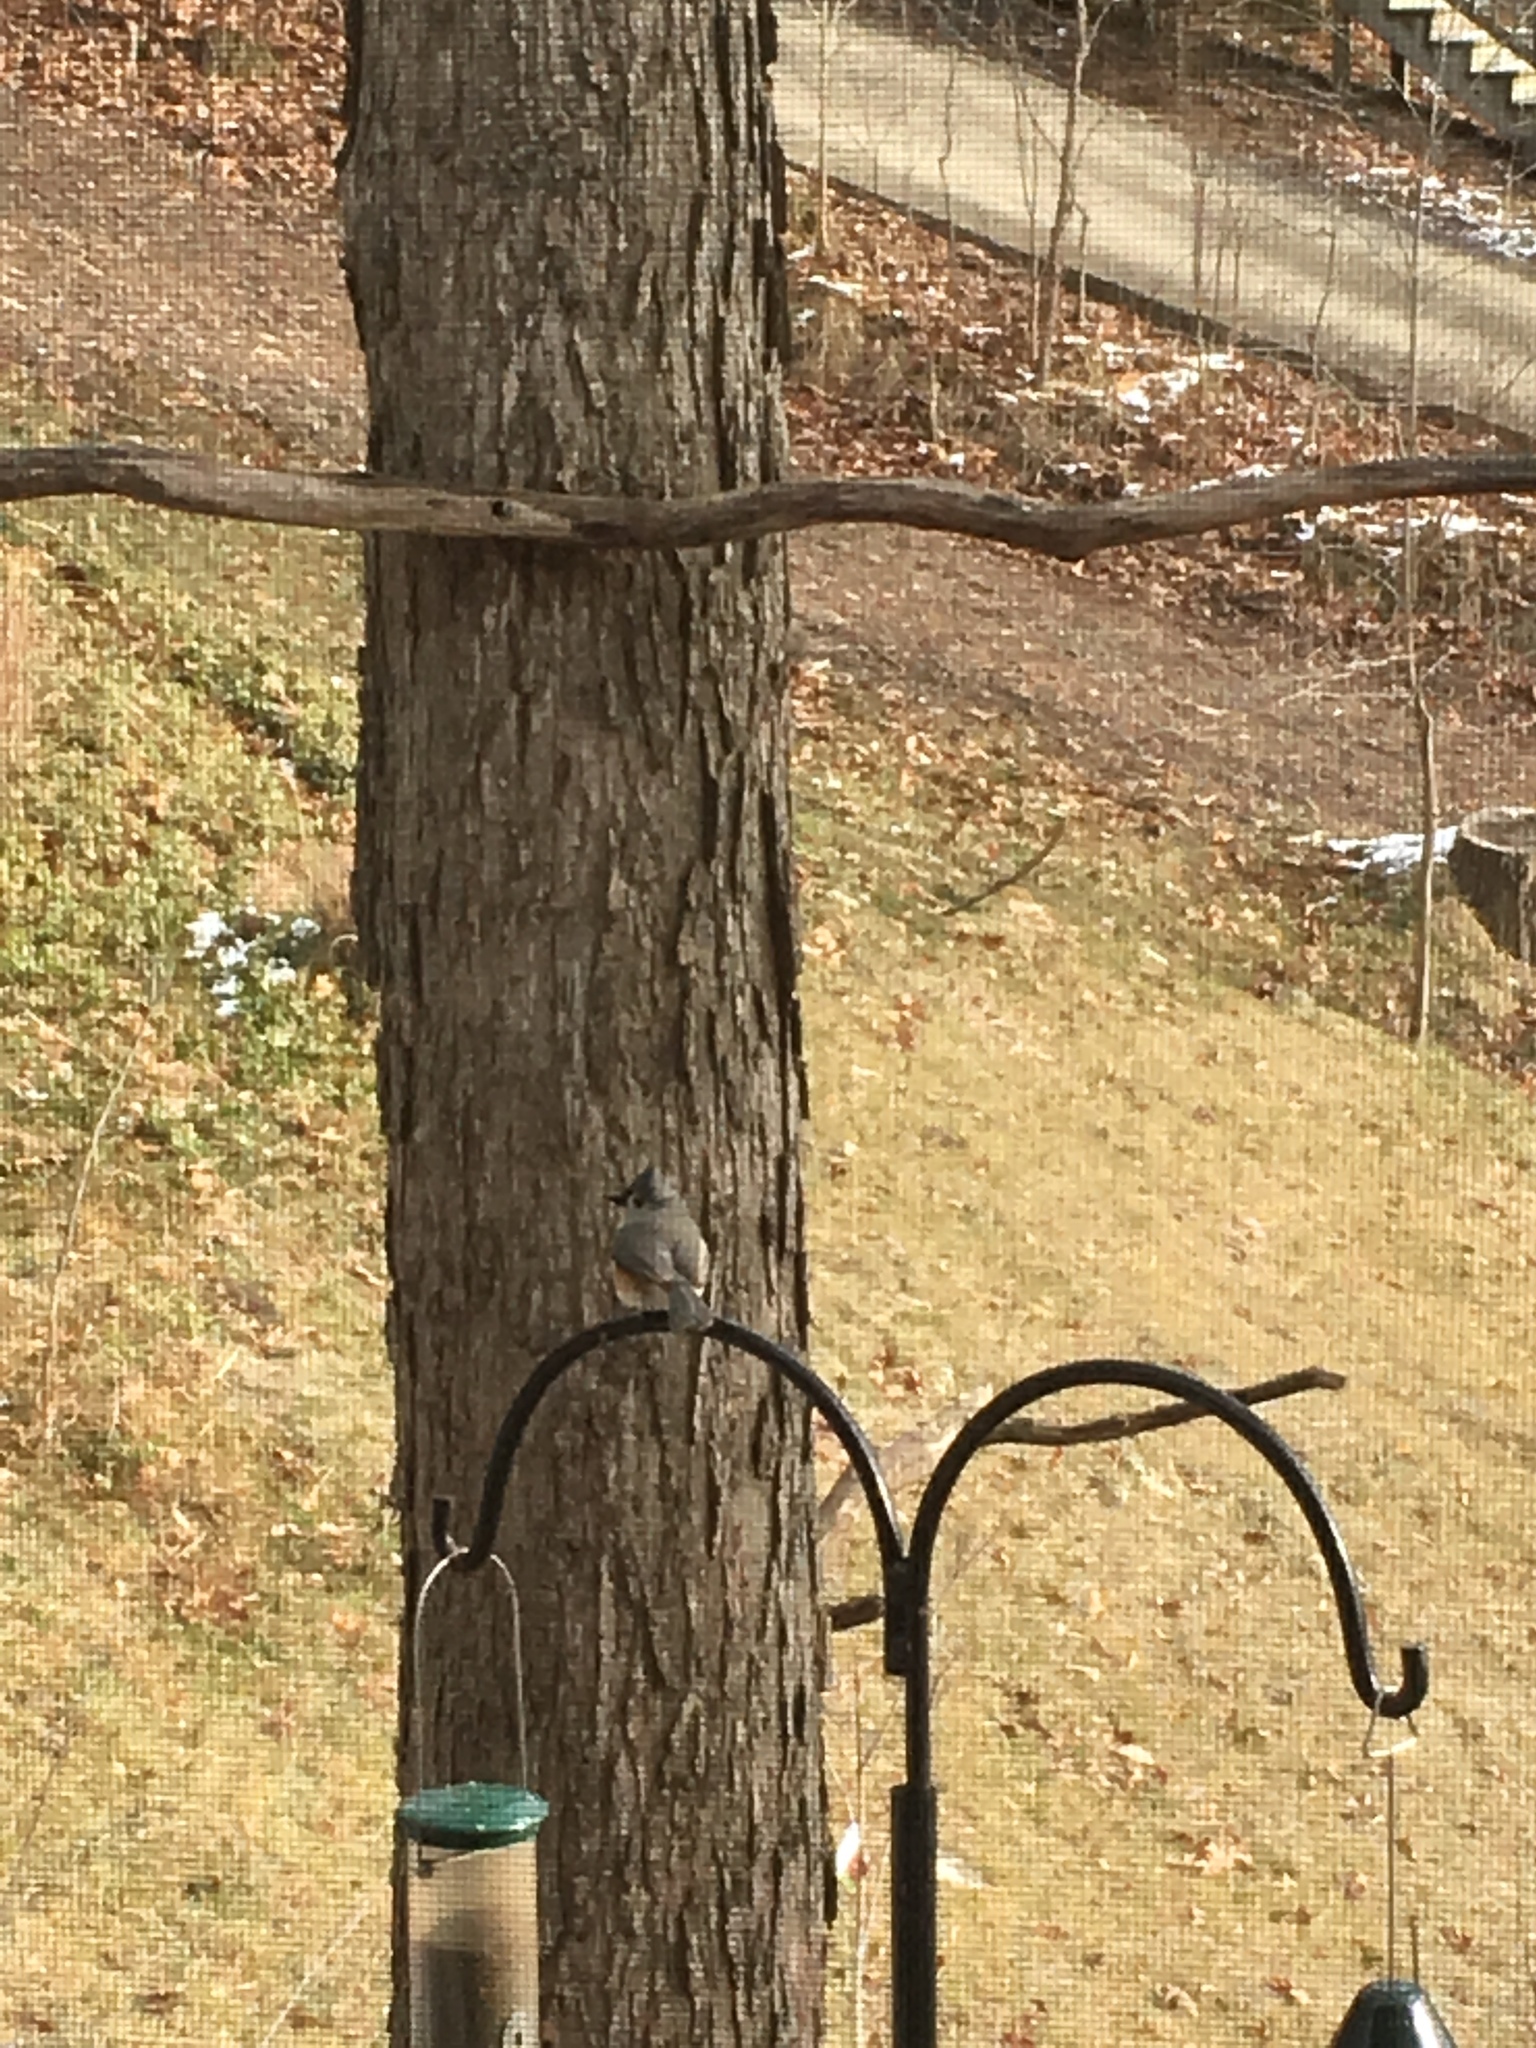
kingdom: Animalia
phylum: Chordata
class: Aves
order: Passeriformes
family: Paridae
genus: Baeolophus
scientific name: Baeolophus bicolor
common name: Tufted titmouse
